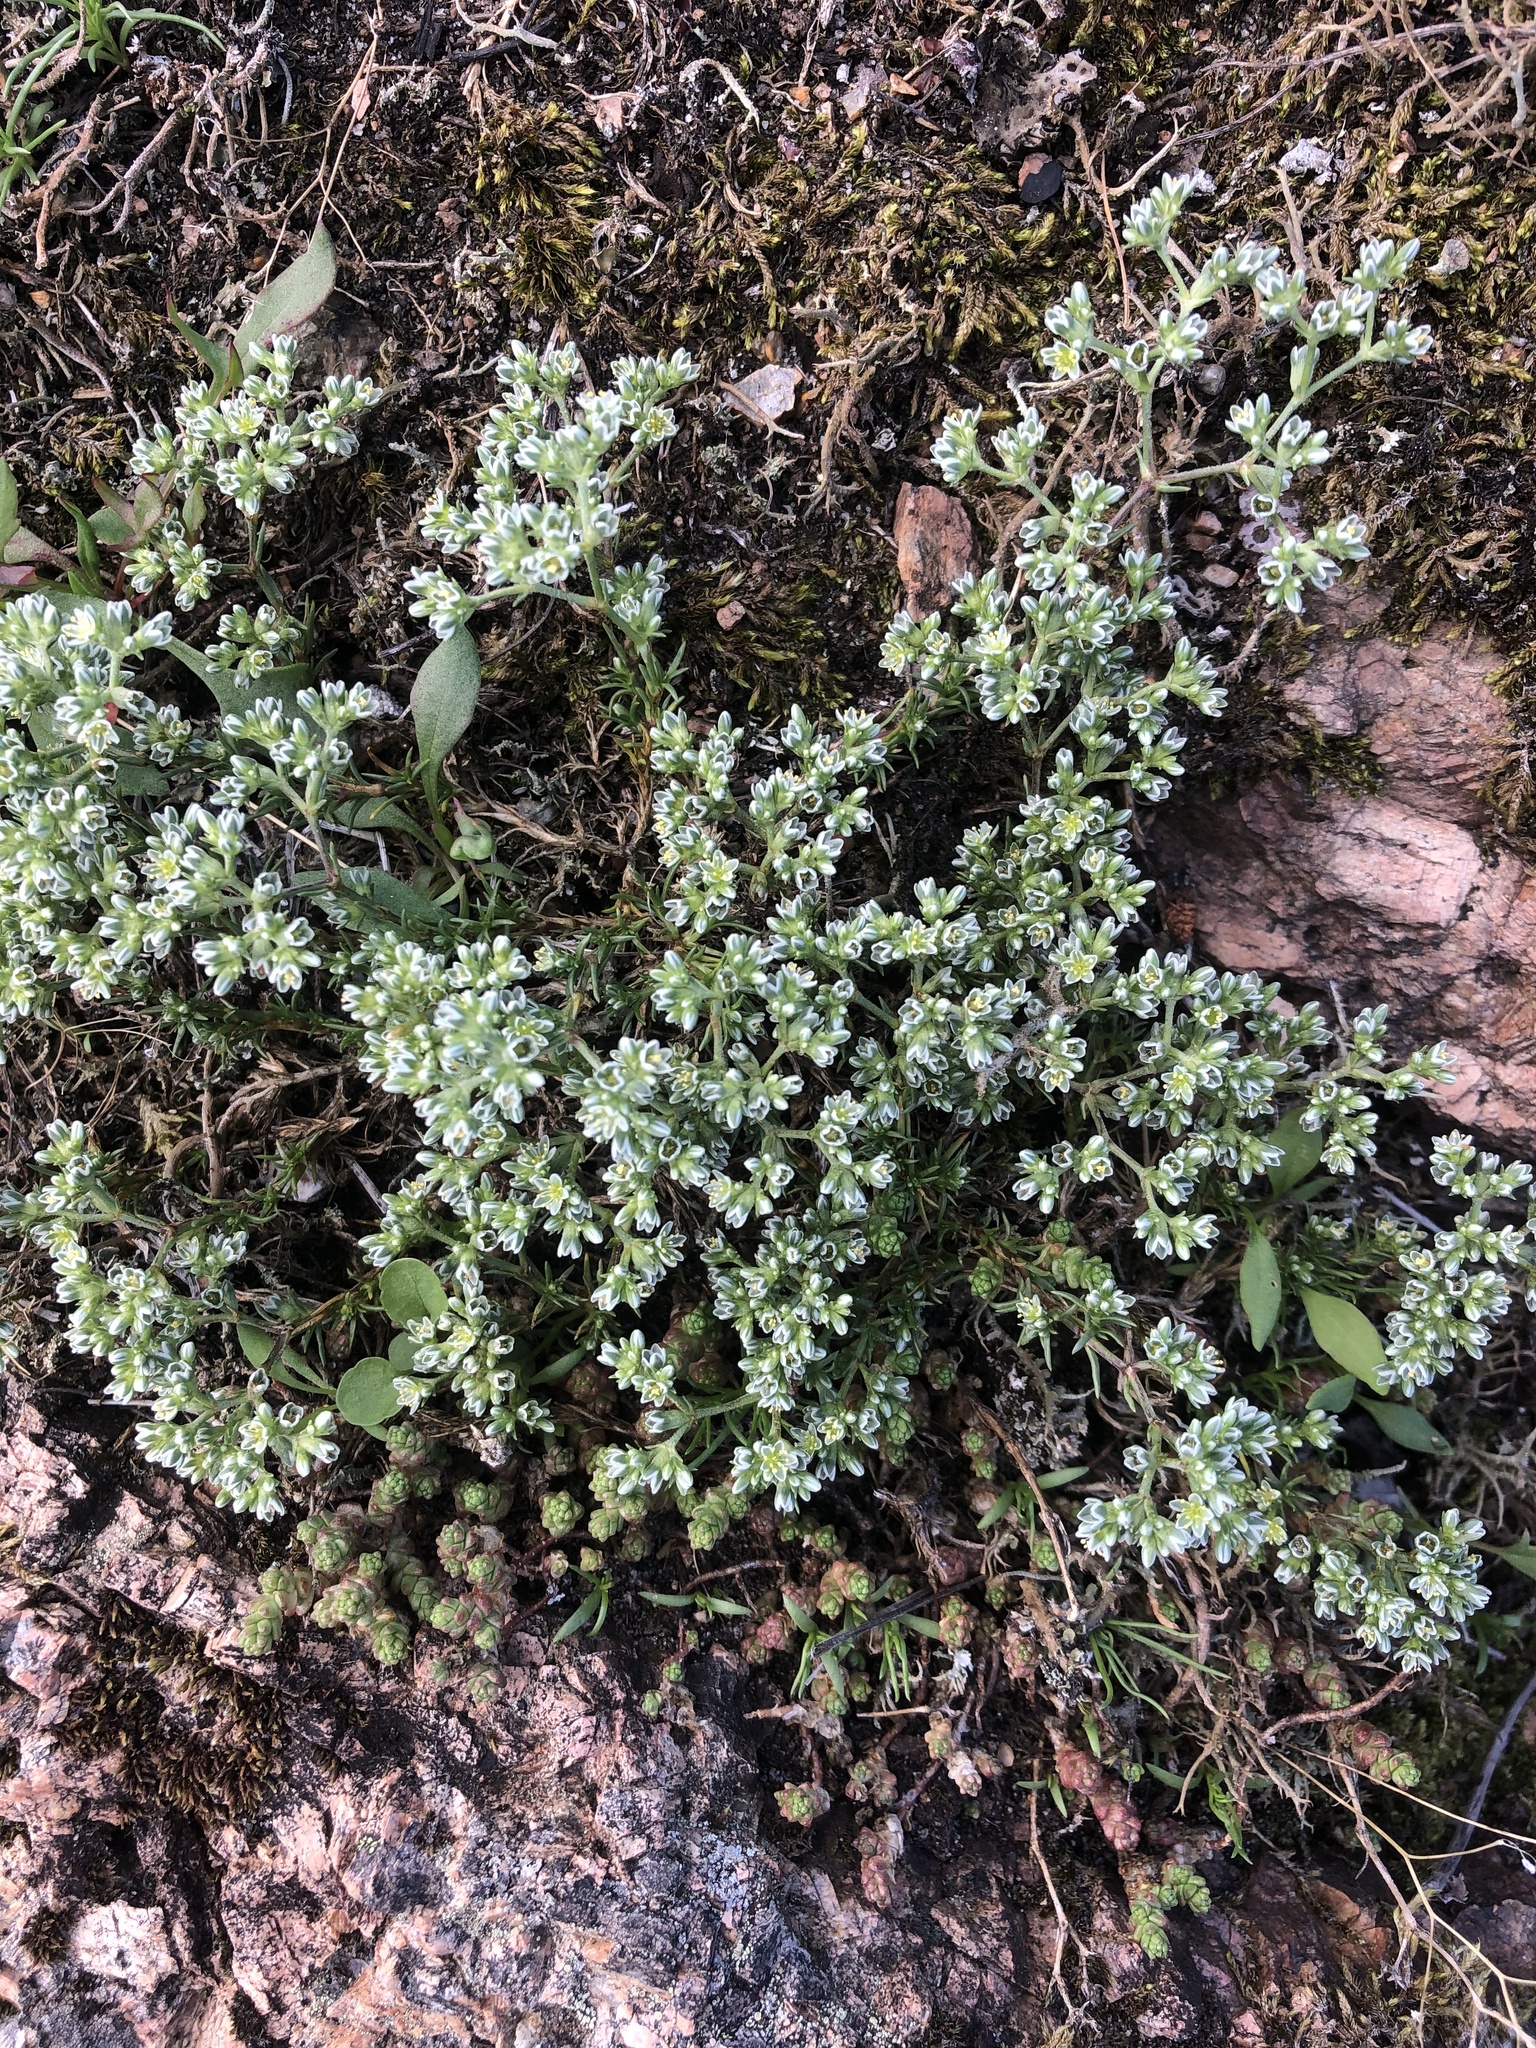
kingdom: Plantae
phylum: Tracheophyta
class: Magnoliopsida
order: Caryophyllales
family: Caryophyllaceae
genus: Scleranthus
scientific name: Scleranthus perennis
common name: Perennial knawel
